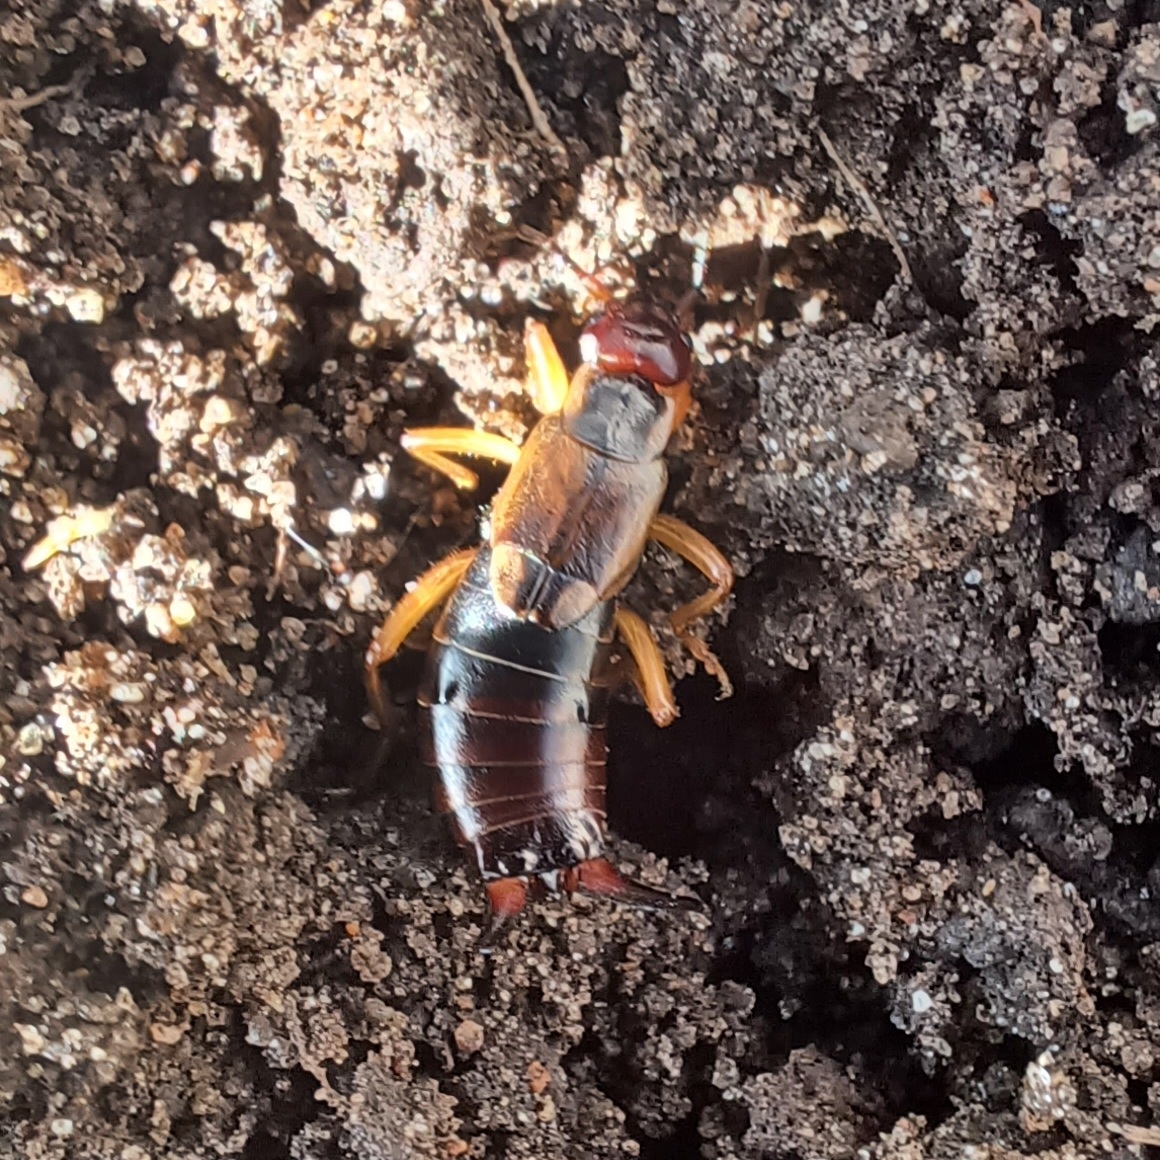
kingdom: Animalia
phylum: Arthropoda
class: Insecta
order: Dermaptera
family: Forficulidae
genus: Forficula
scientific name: Forficula
